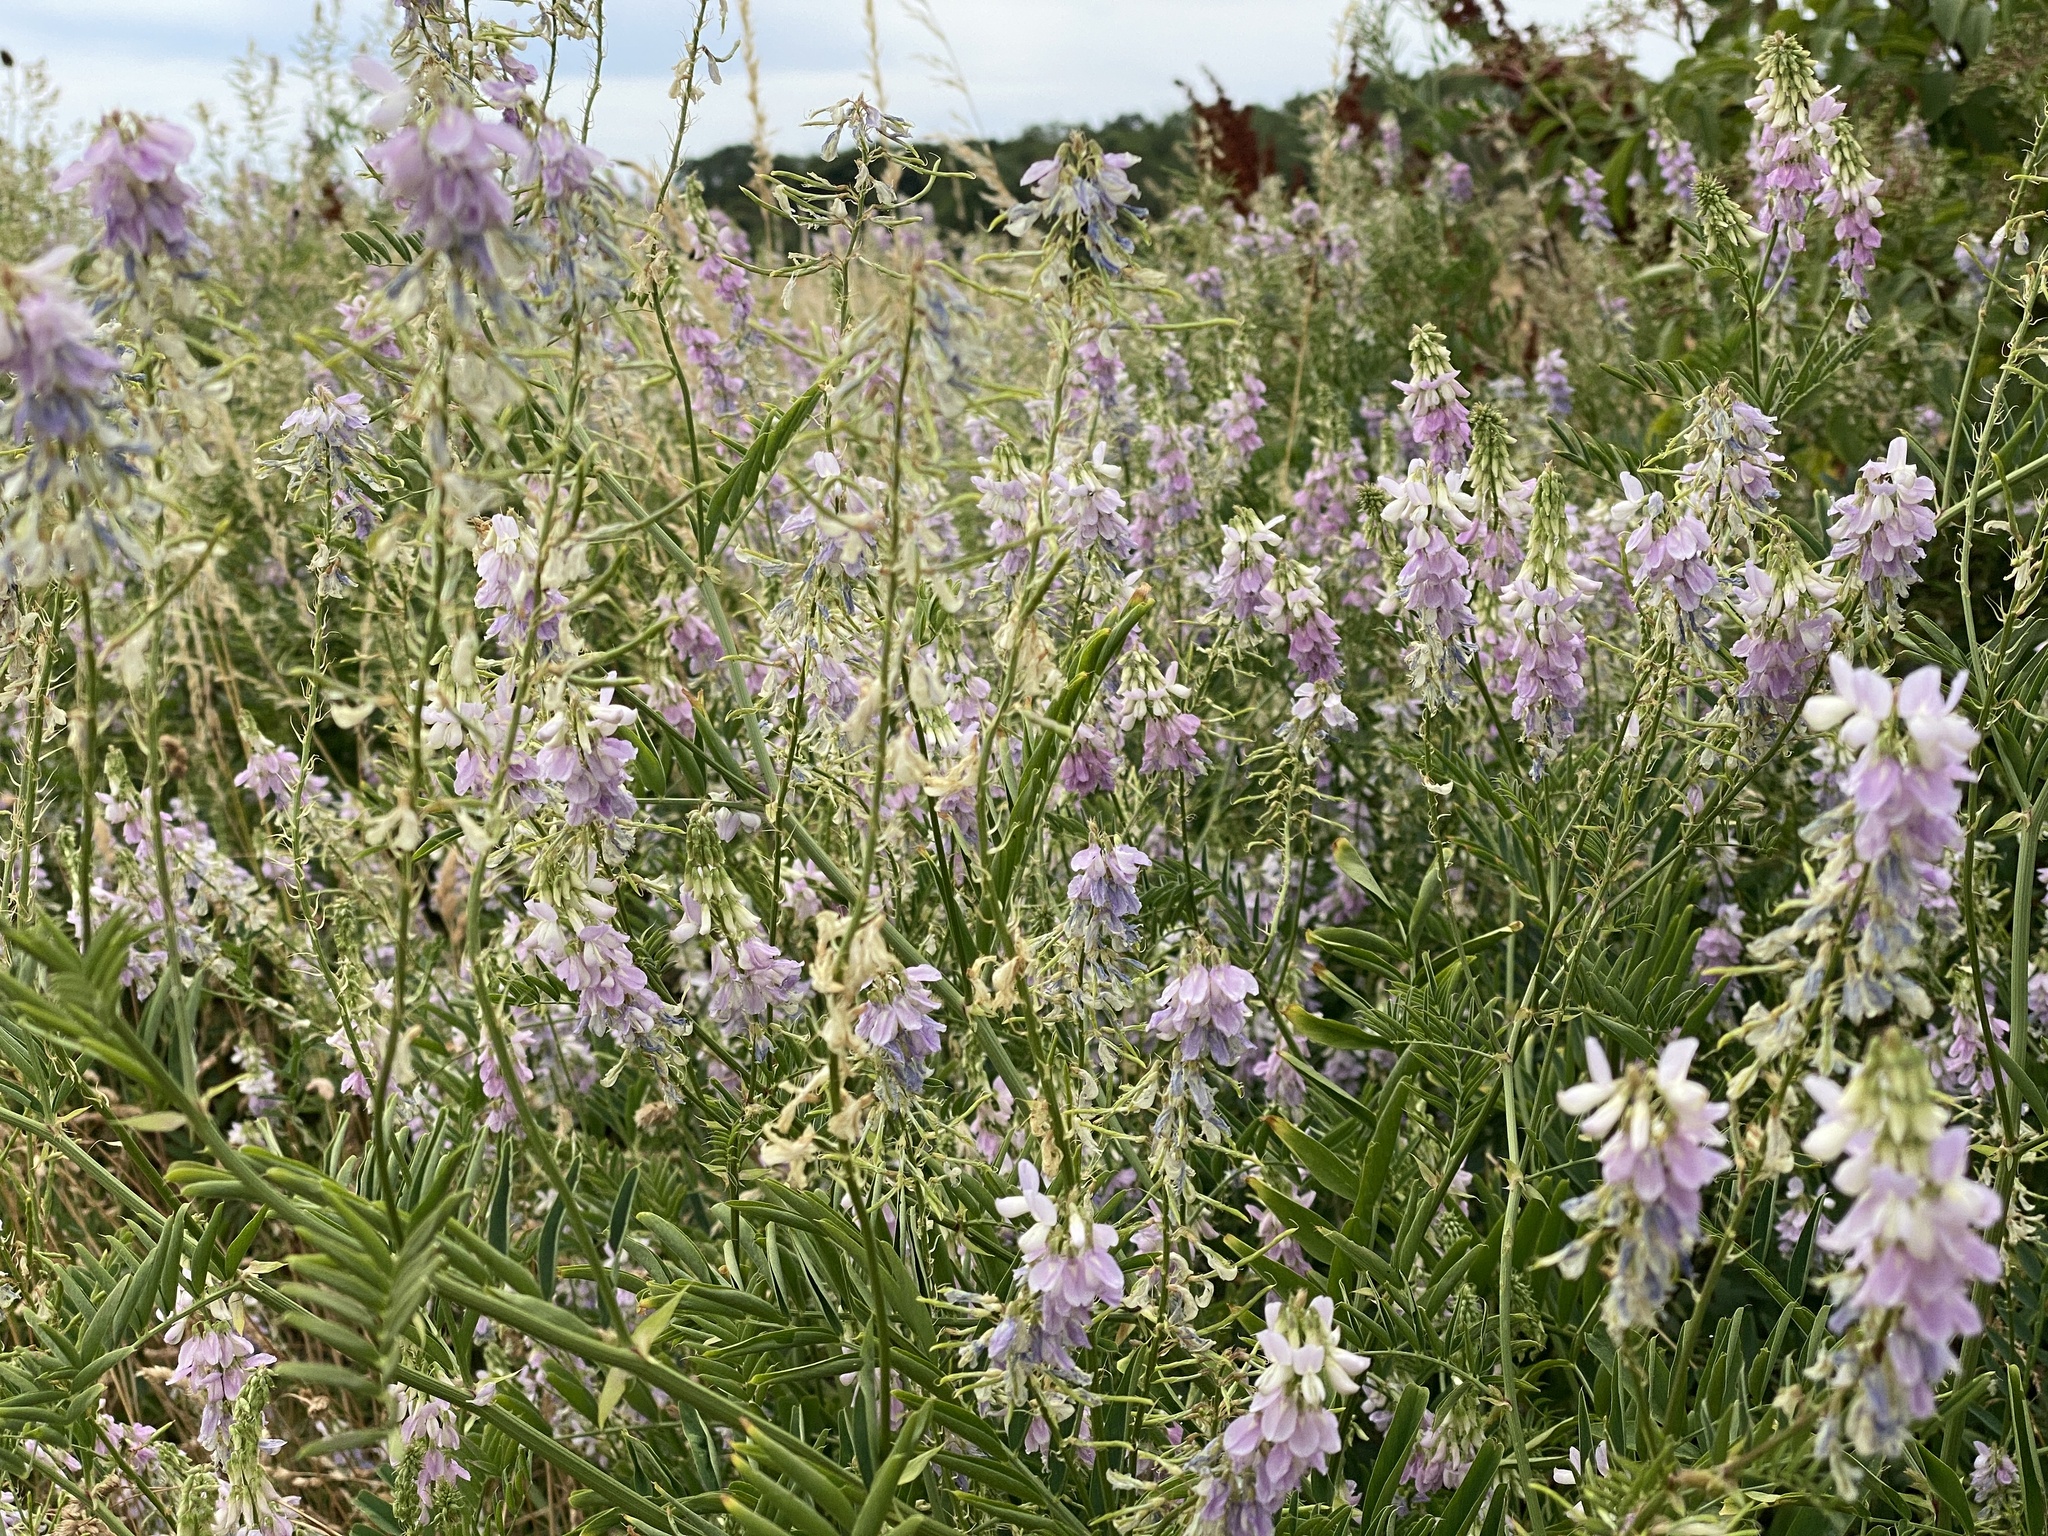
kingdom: Plantae
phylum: Tracheophyta
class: Magnoliopsida
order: Fabales
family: Fabaceae
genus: Galega
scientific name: Galega officinalis
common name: Goat's-rue
